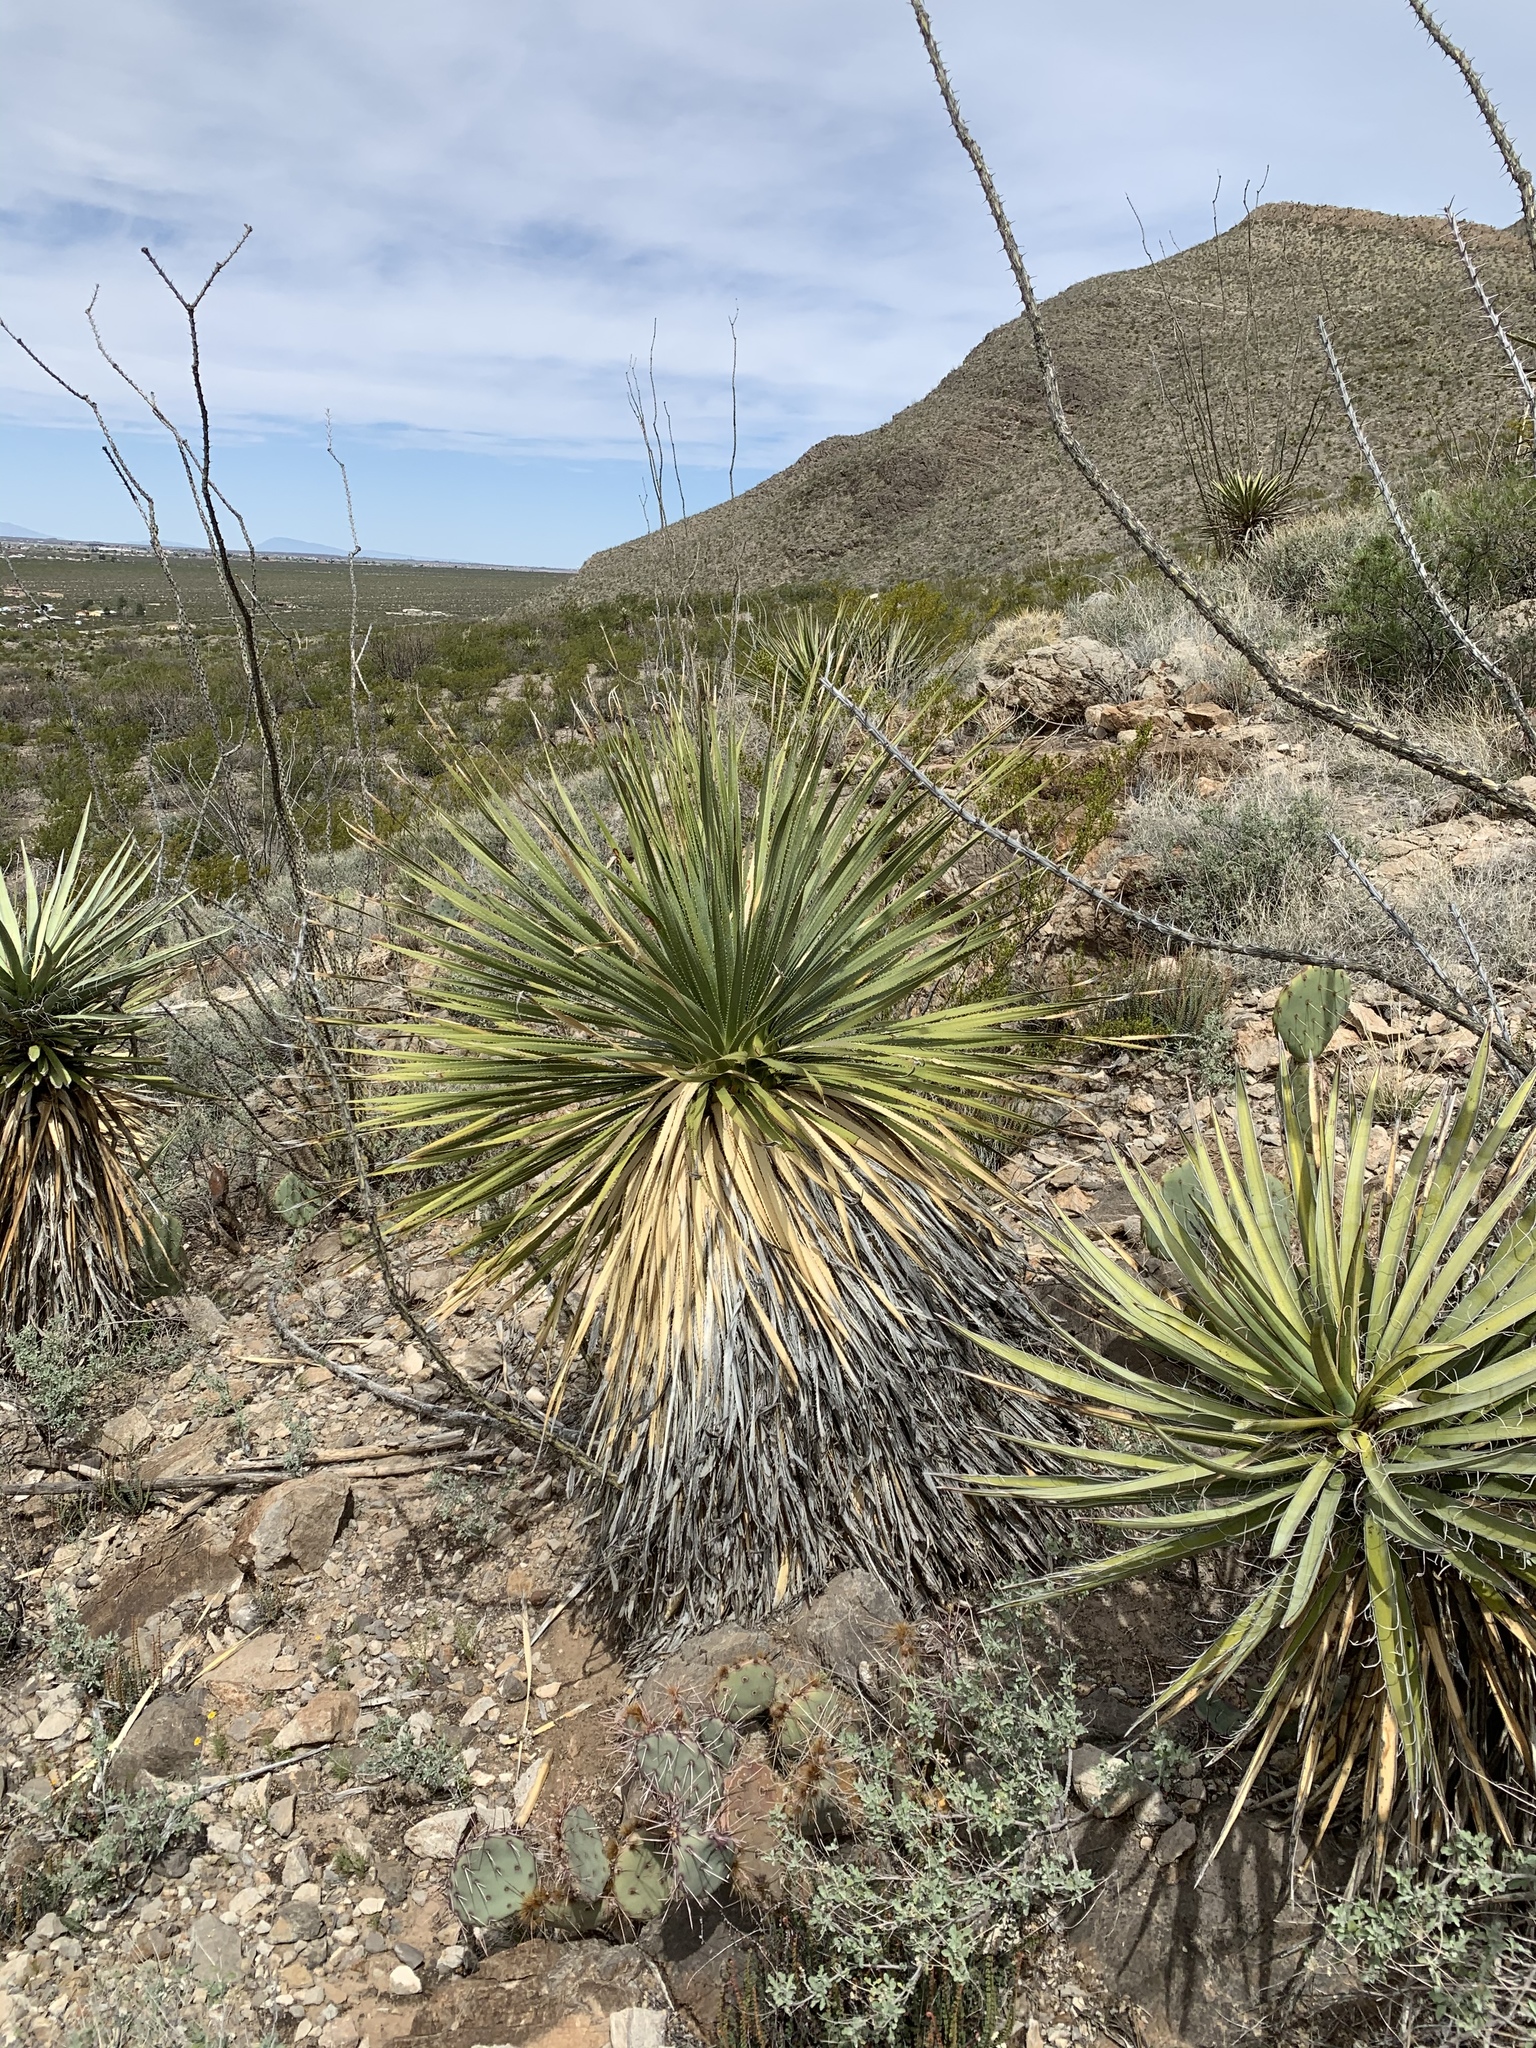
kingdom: Plantae
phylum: Tracheophyta
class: Liliopsida
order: Asparagales
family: Asparagaceae
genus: Dasylirion
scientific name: Dasylirion wheeleri
